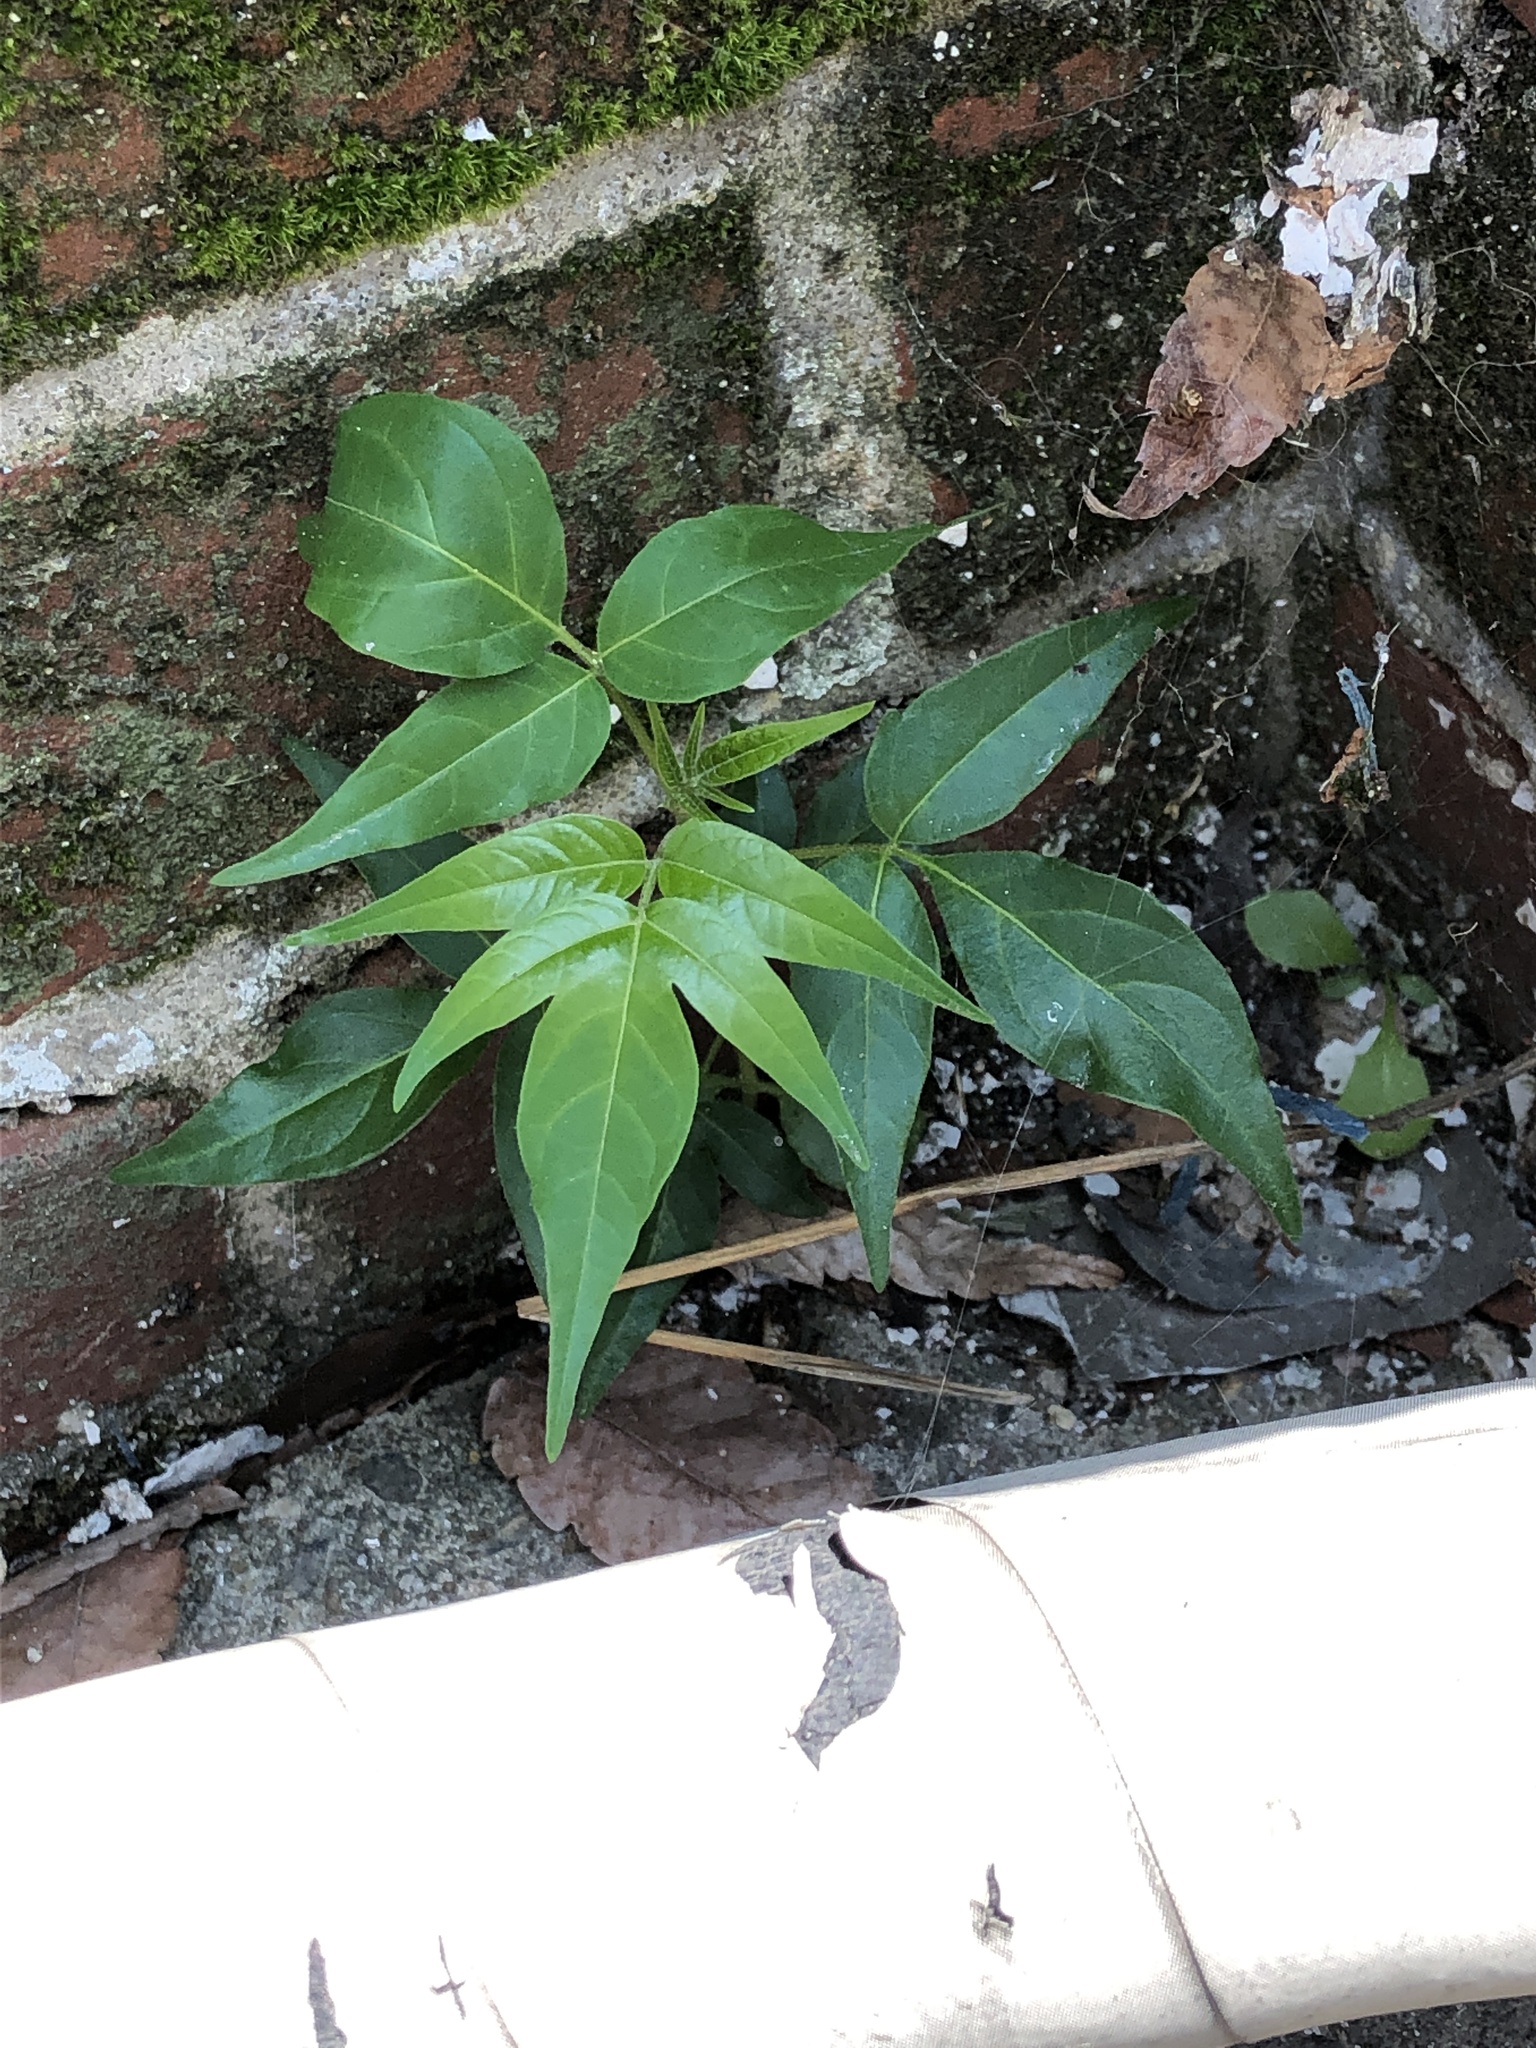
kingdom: Plantae
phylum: Tracheophyta
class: Magnoliopsida
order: Sapindales
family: Simaroubaceae
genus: Ailanthus
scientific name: Ailanthus altissima
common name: Tree-of-heaven
